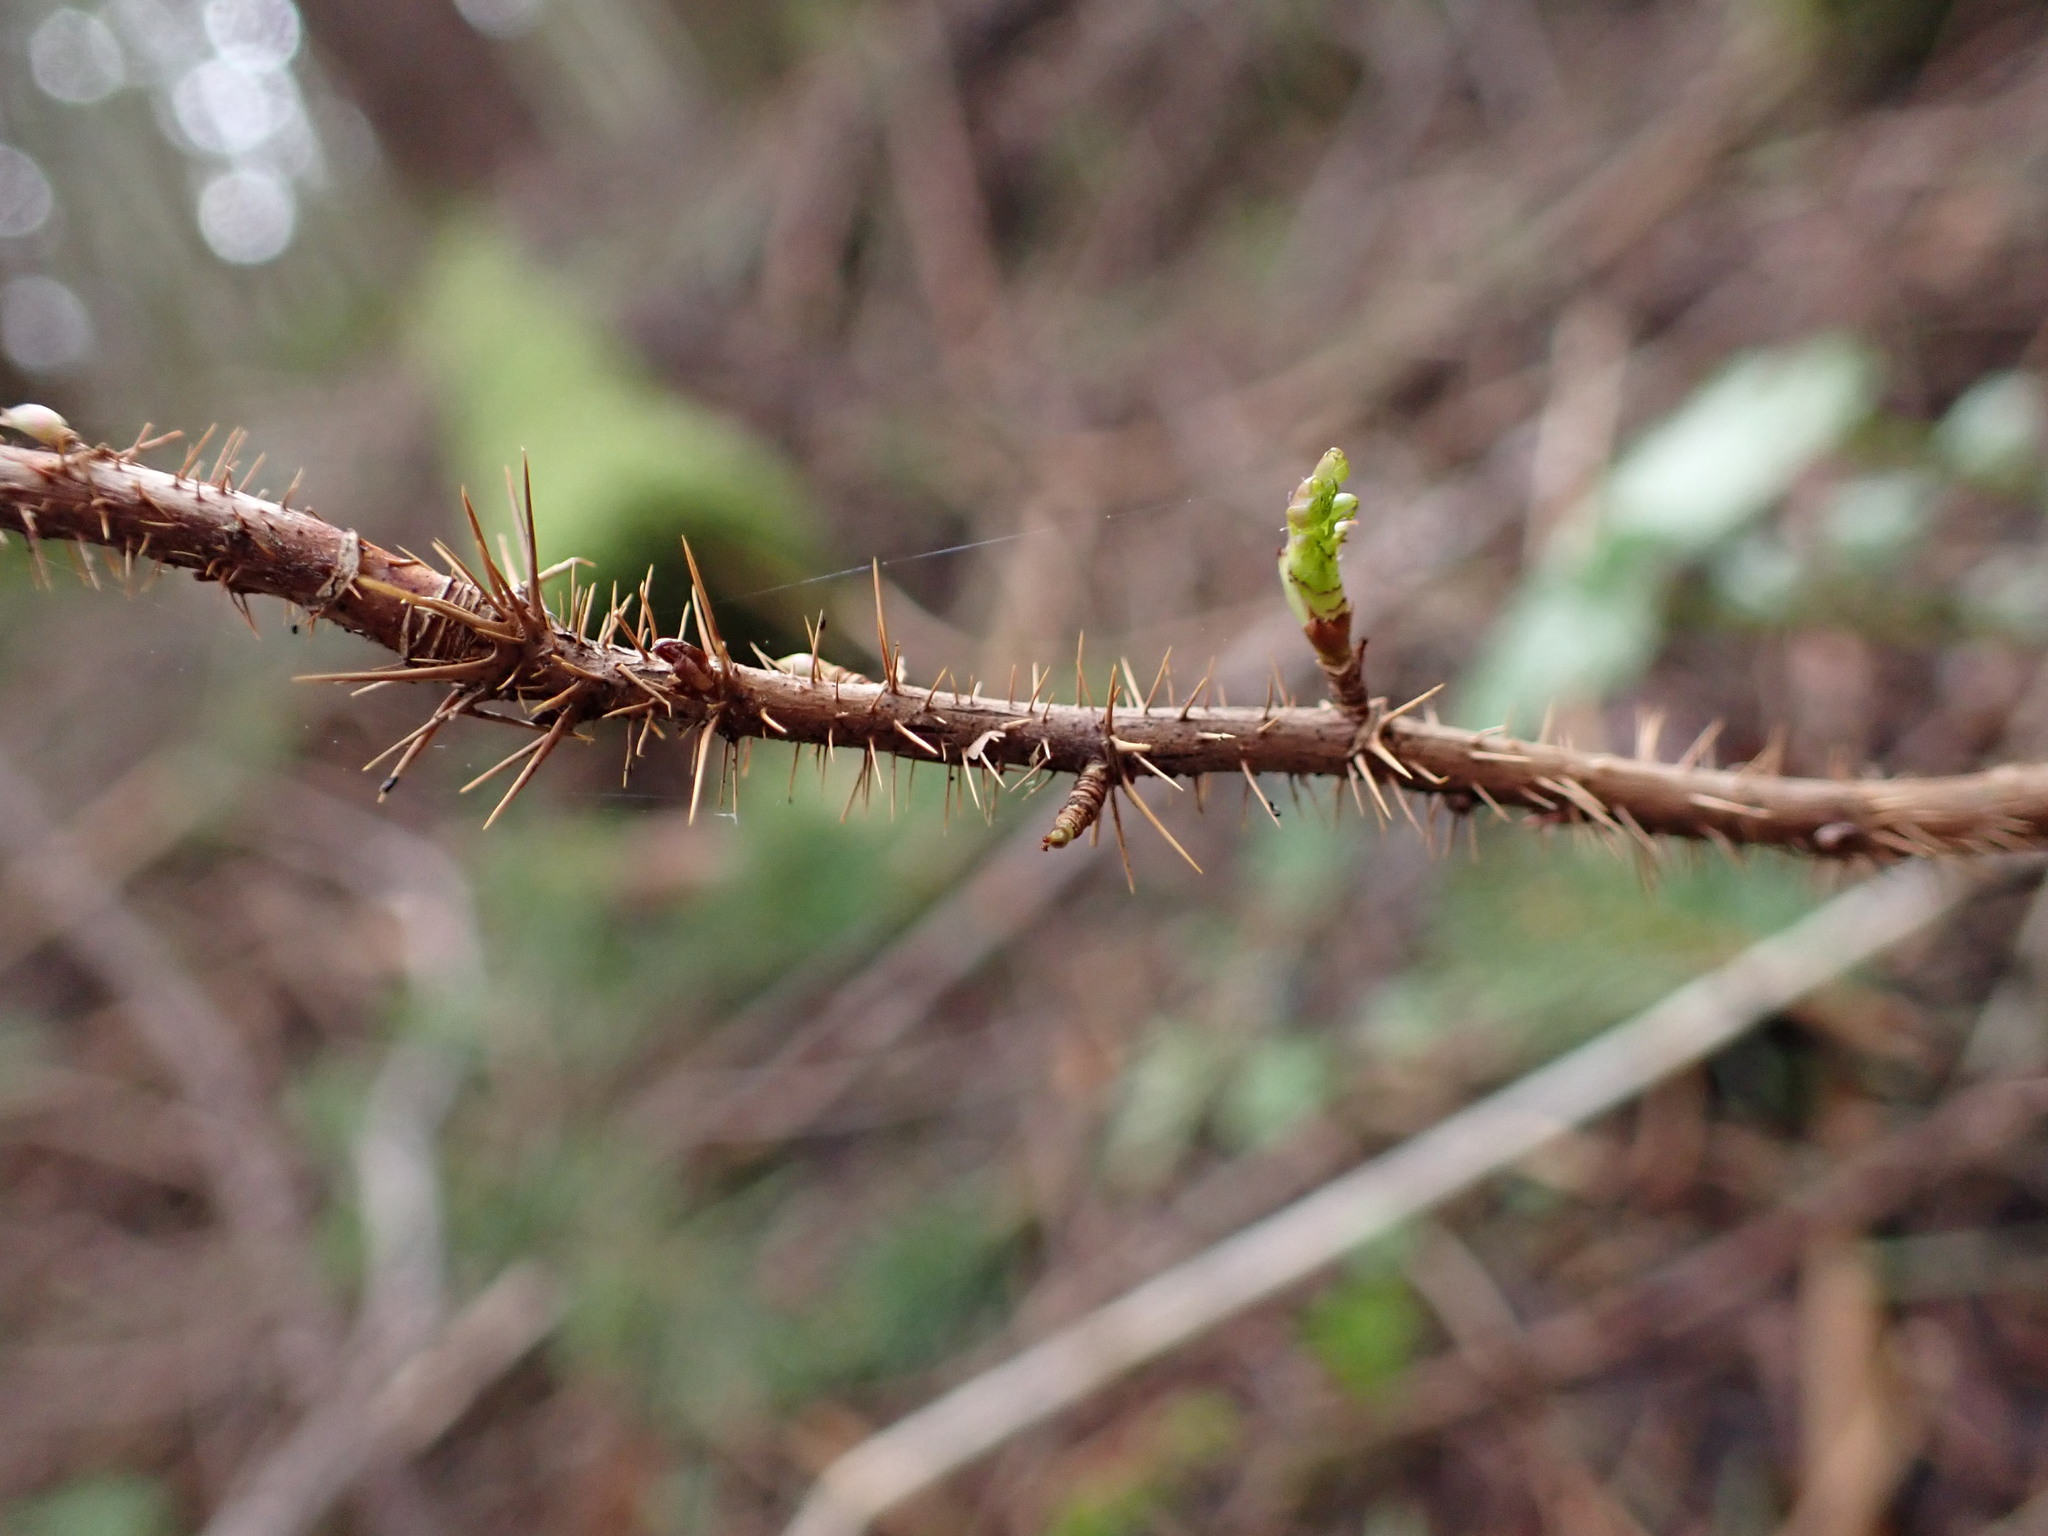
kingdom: Plantae
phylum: Tracheophyta
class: Magnoliopsida
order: Saxifragales
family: Grossulariaceae
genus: Ribes
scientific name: Ribes lacustre
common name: Black gooseberry
